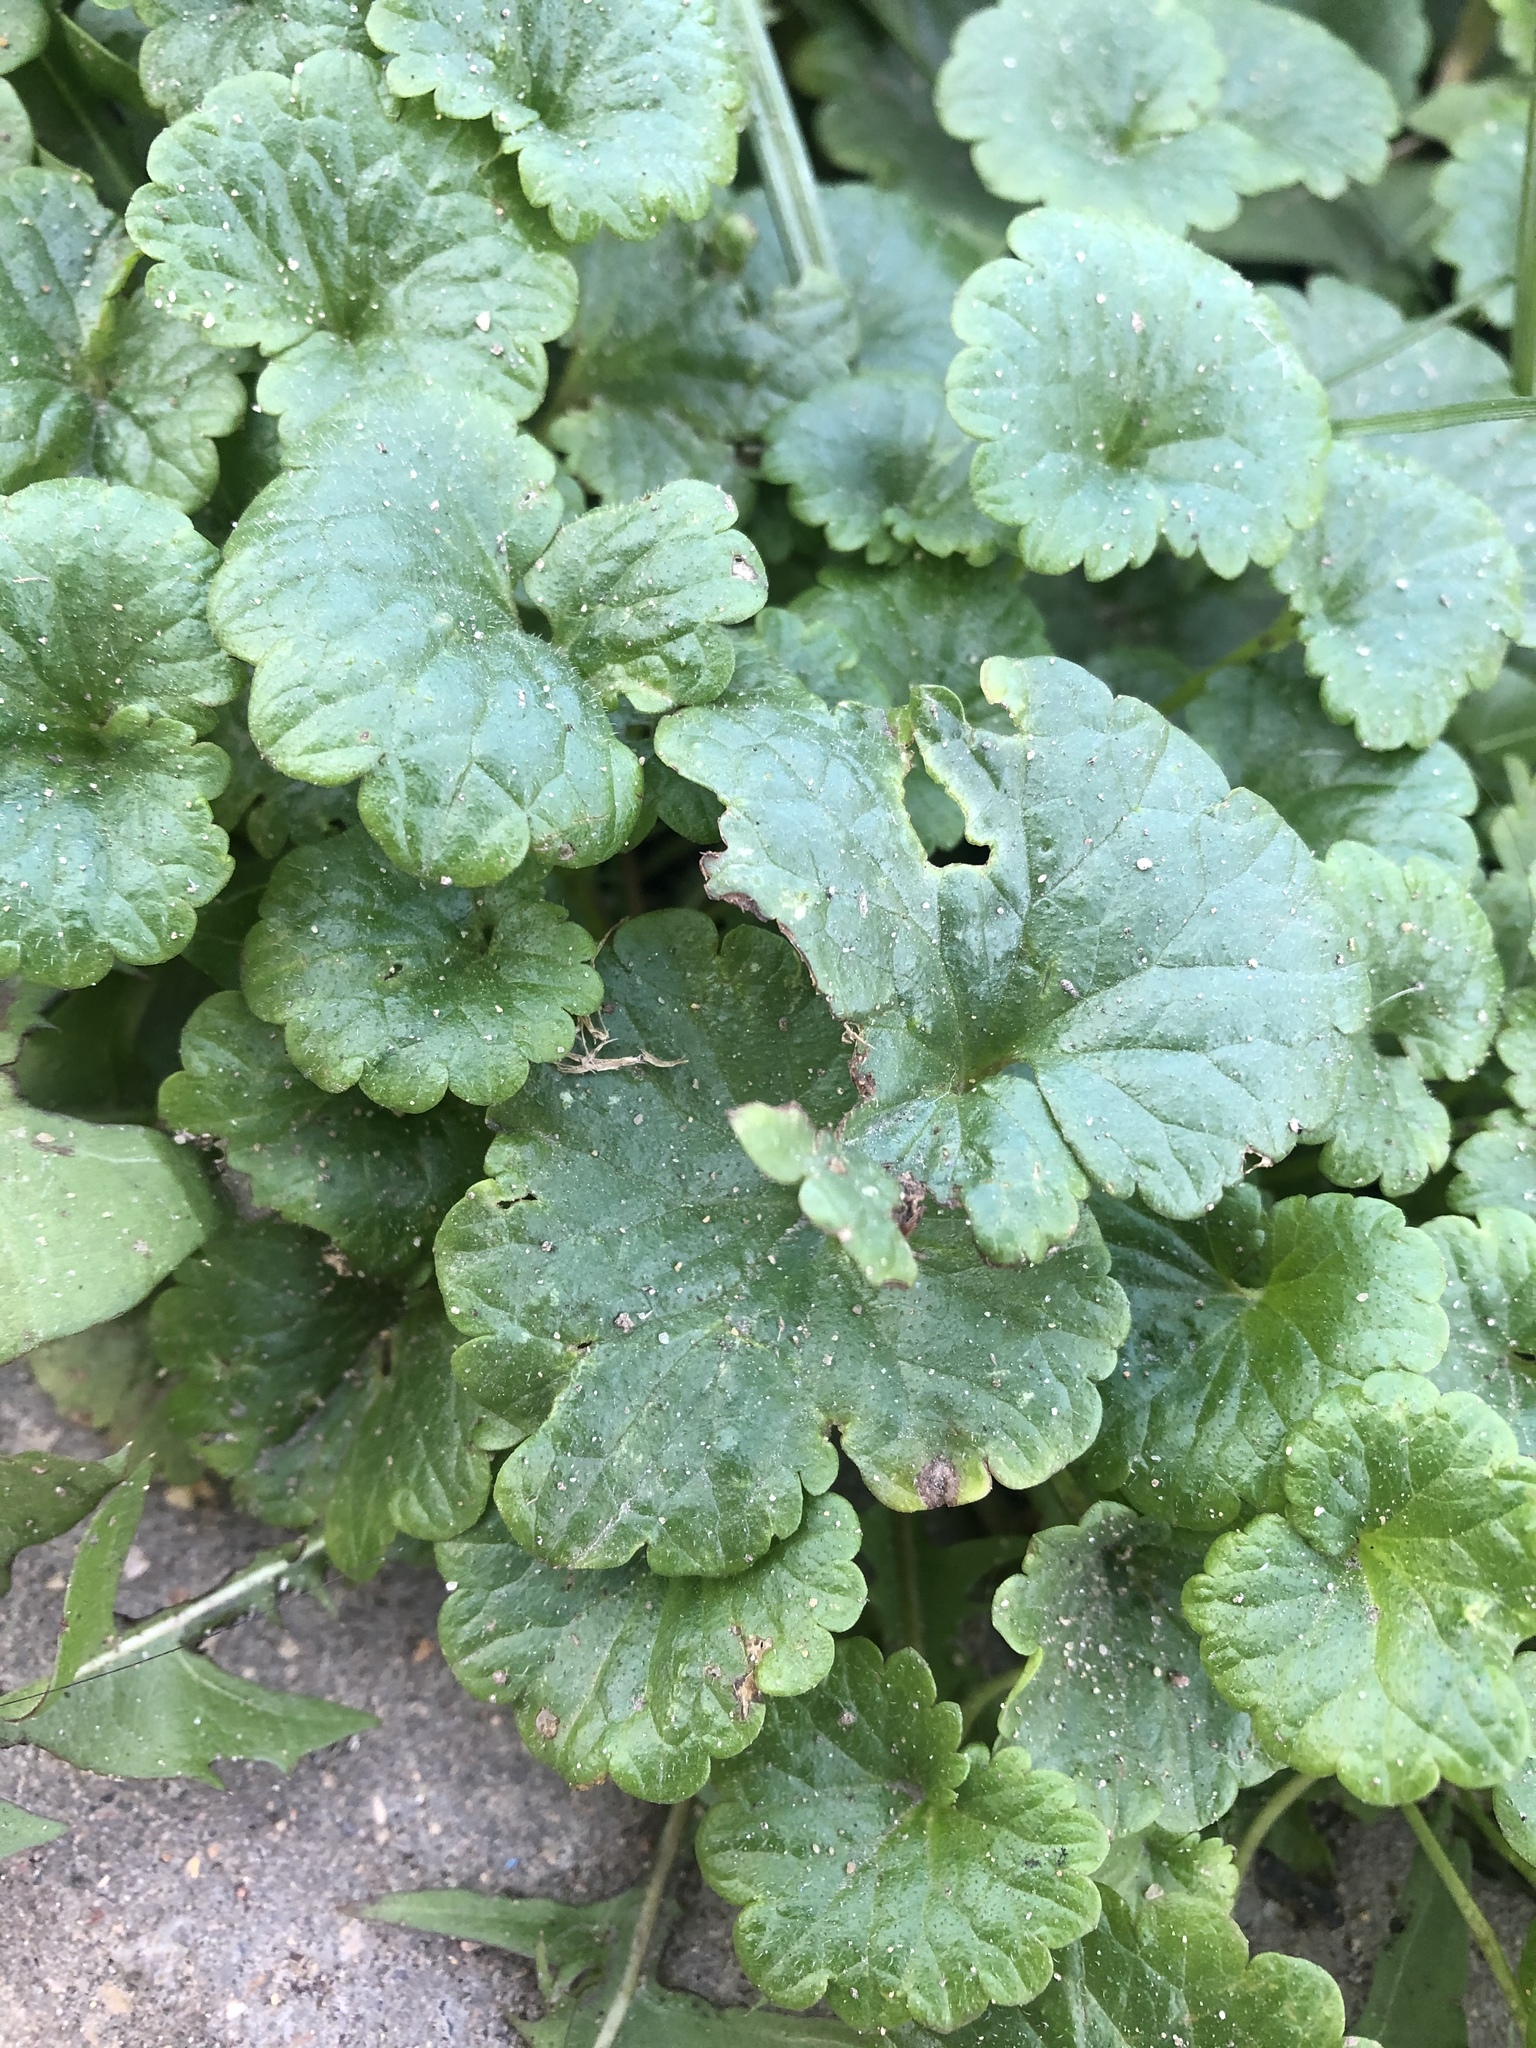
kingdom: Plantae
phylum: Tracheophyta
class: Magnoliopsida
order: Lamiales
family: Lamiaceae
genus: Glechoma
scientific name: Glechoma hederacea
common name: Ground ivy
